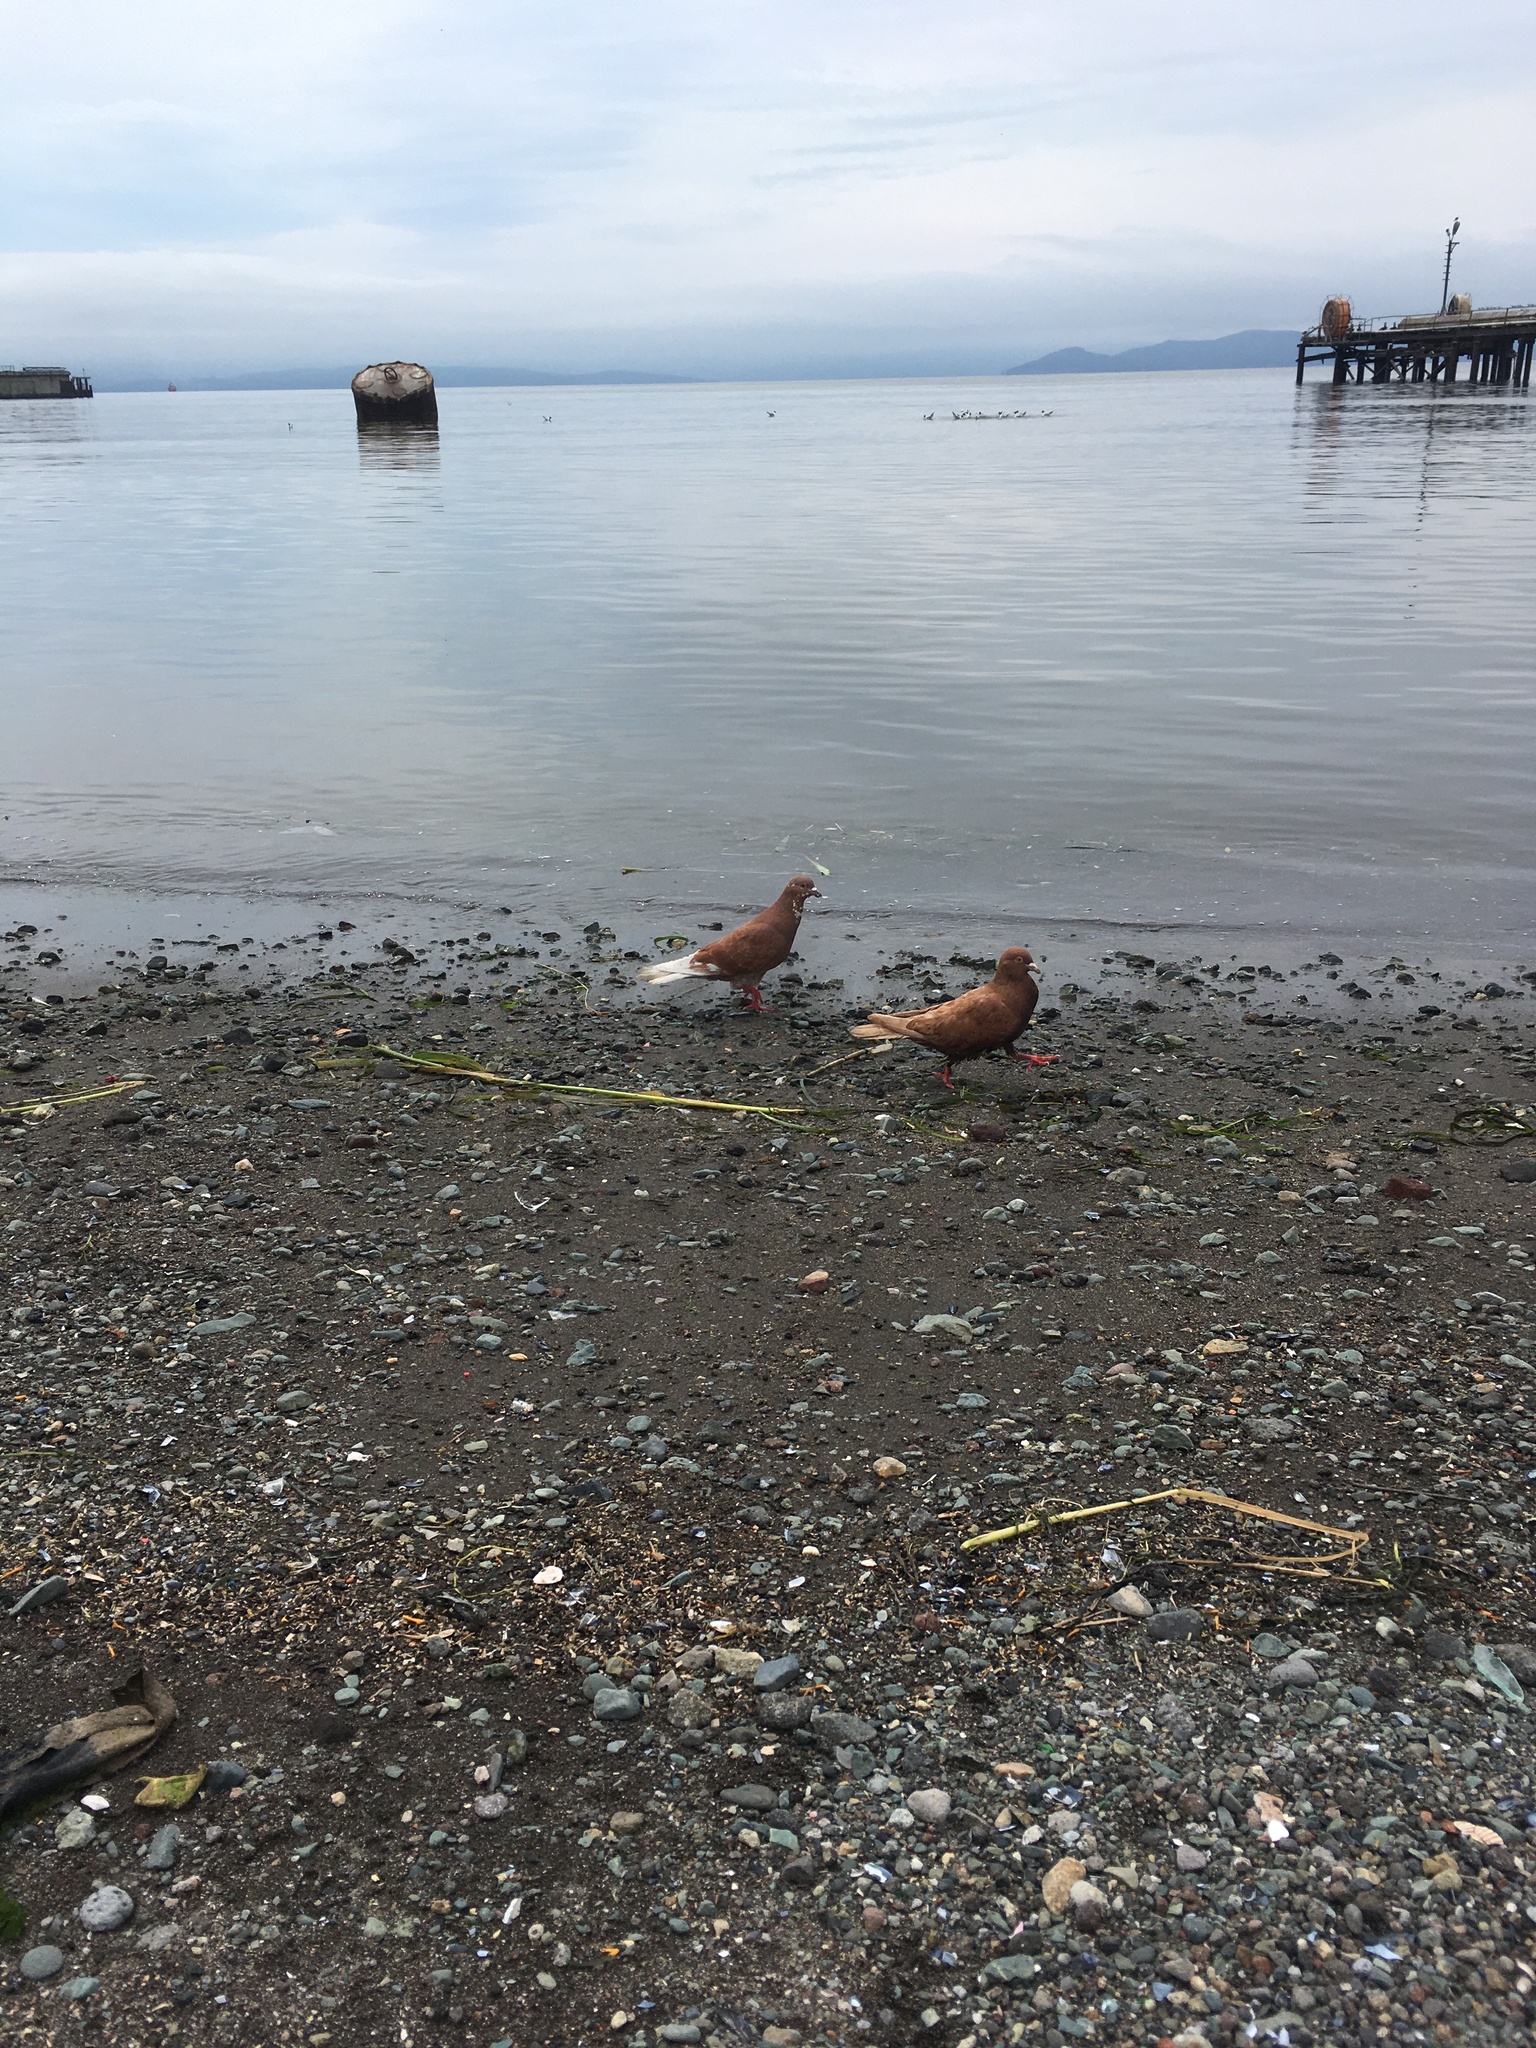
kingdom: Animalia
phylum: Chordata
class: Aves
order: Columbiformes
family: Columbidae
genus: Columba
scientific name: Columba livia
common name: Rock pigeon
